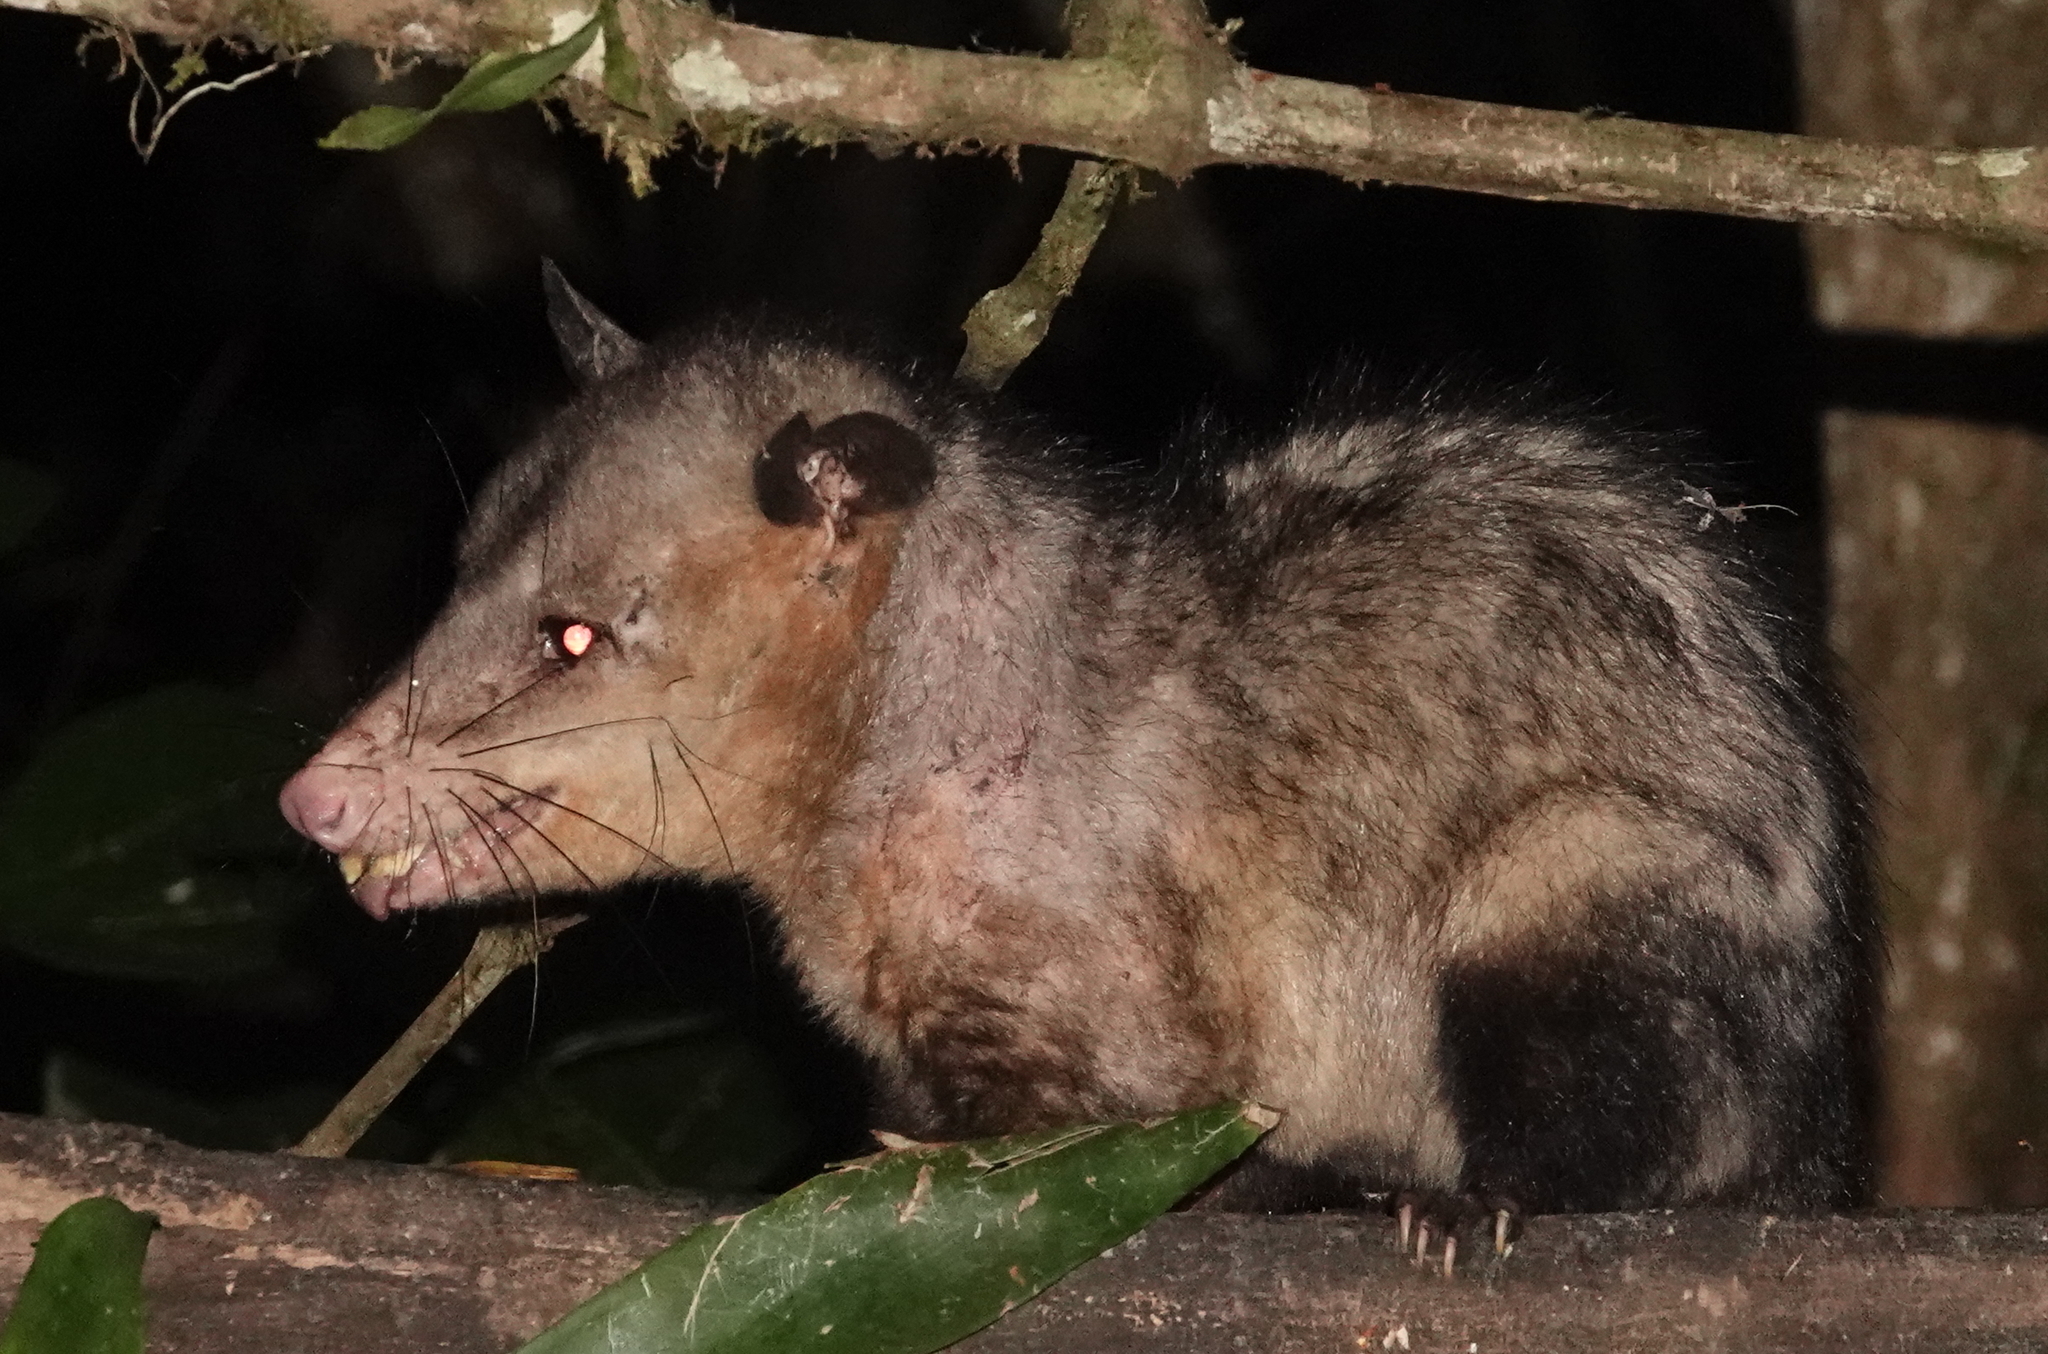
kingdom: Animalia
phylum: Chordata
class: Mammalia
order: Didelphimorphia
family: Didelphidae
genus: Didelphis
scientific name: Didelphis marsupialis
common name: Common opossum
